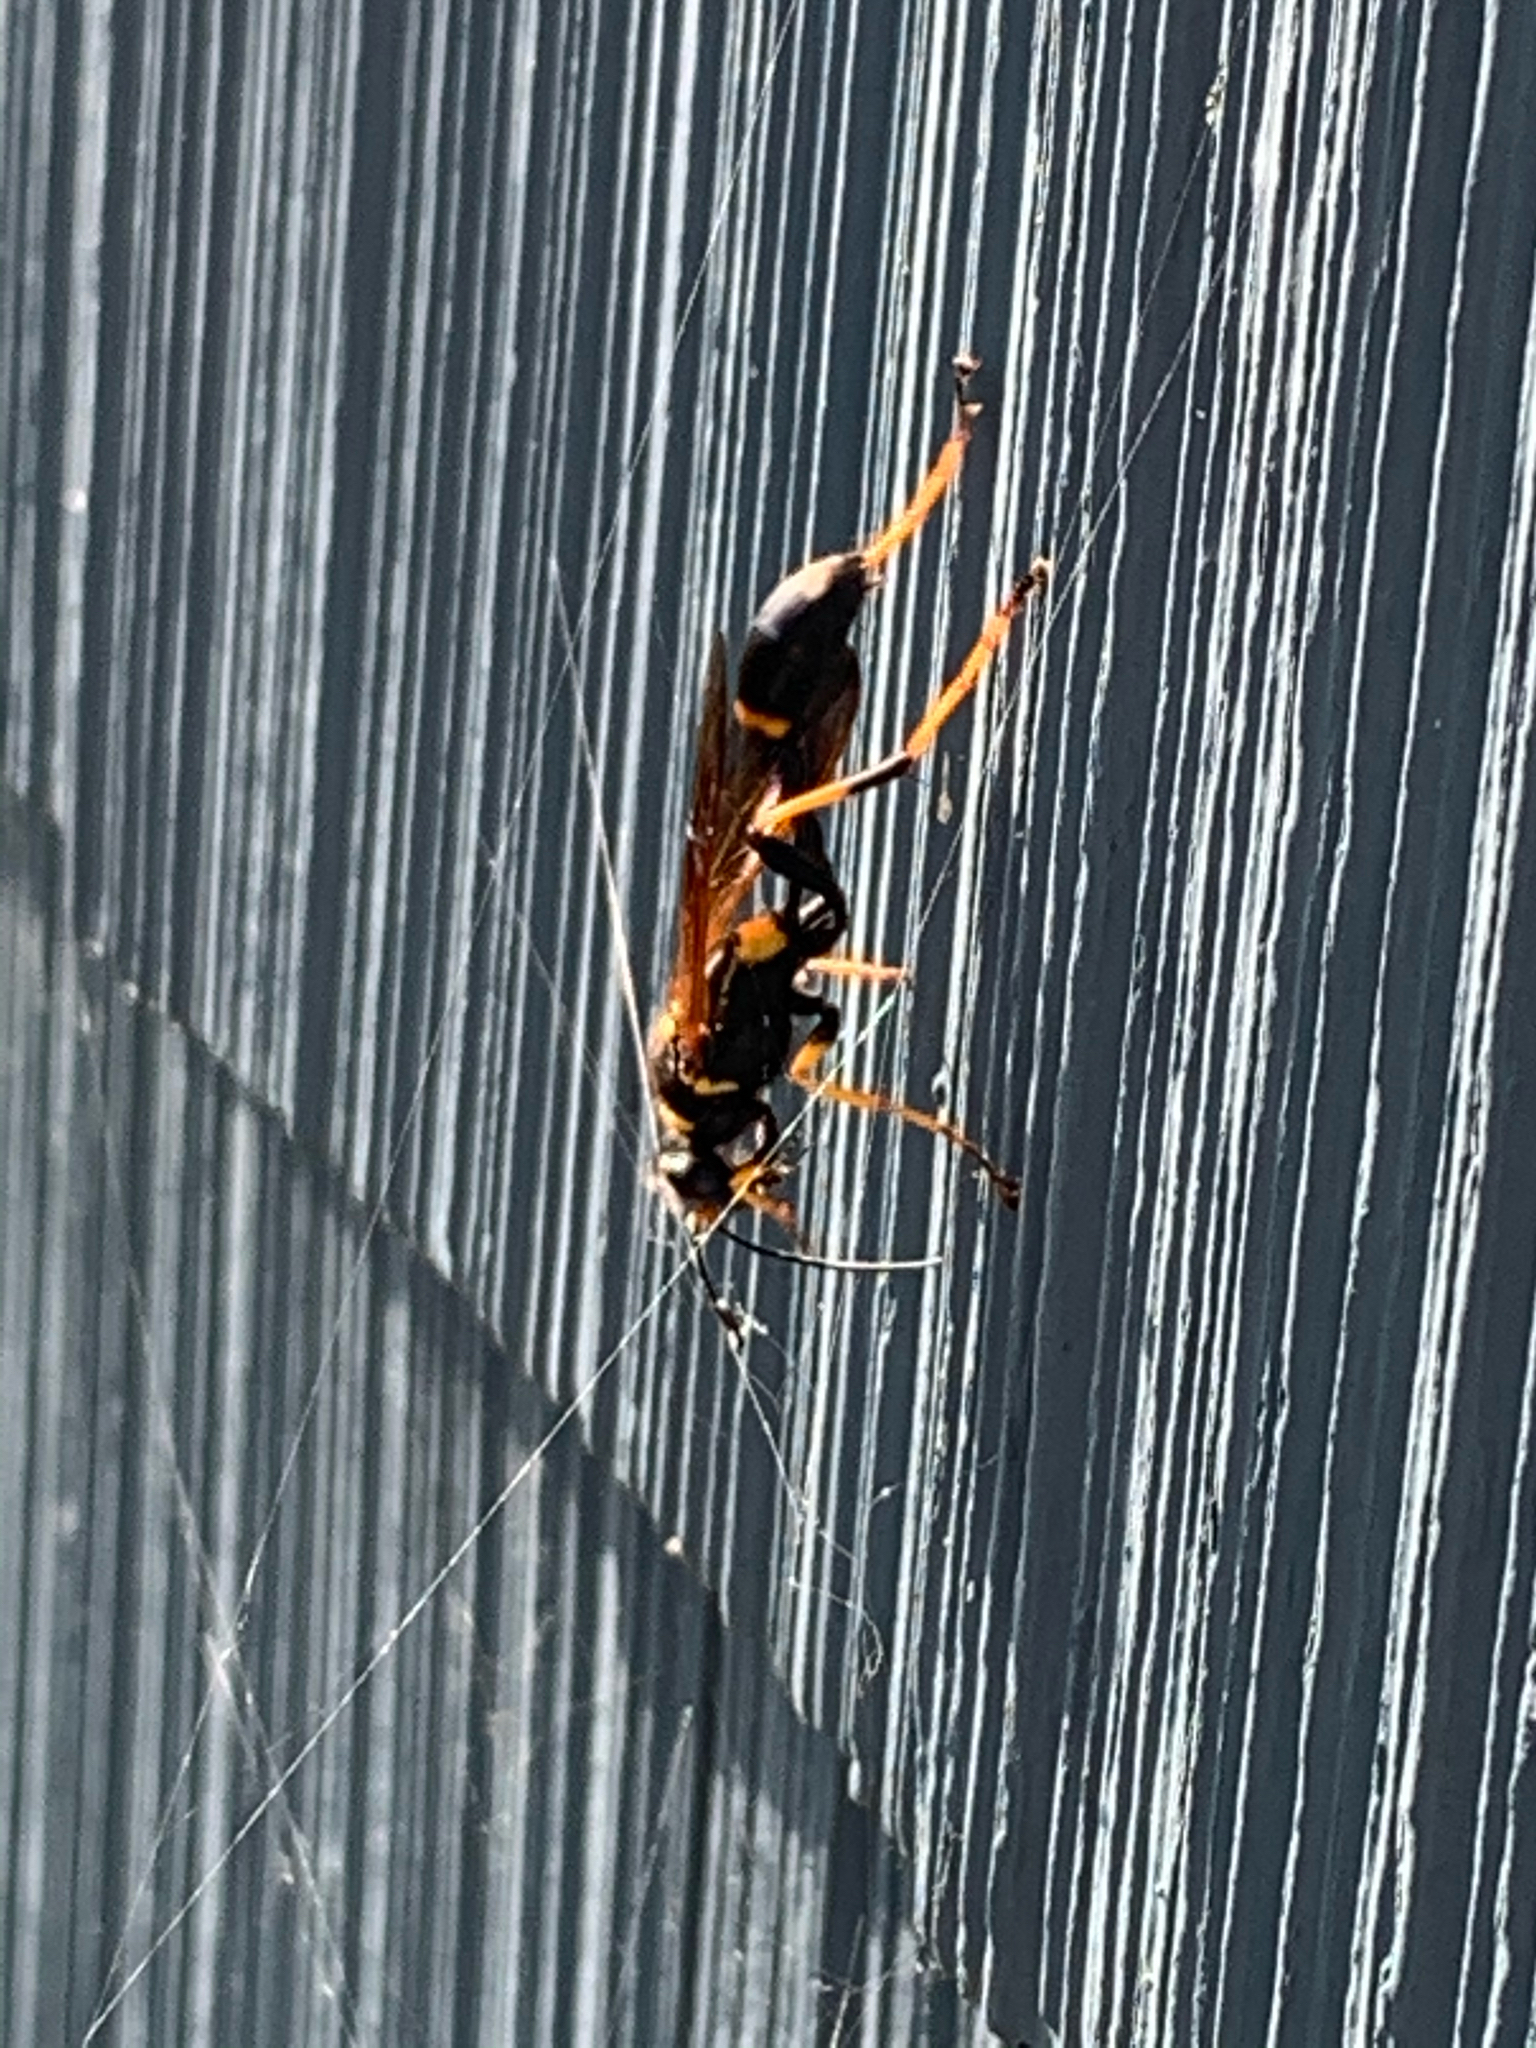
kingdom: Animalia
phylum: Arthropoda
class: Insecta
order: Hymenoptera
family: Sphecidae
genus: Sceliphron
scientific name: Sceliphron caementarium
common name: Mud dauber
